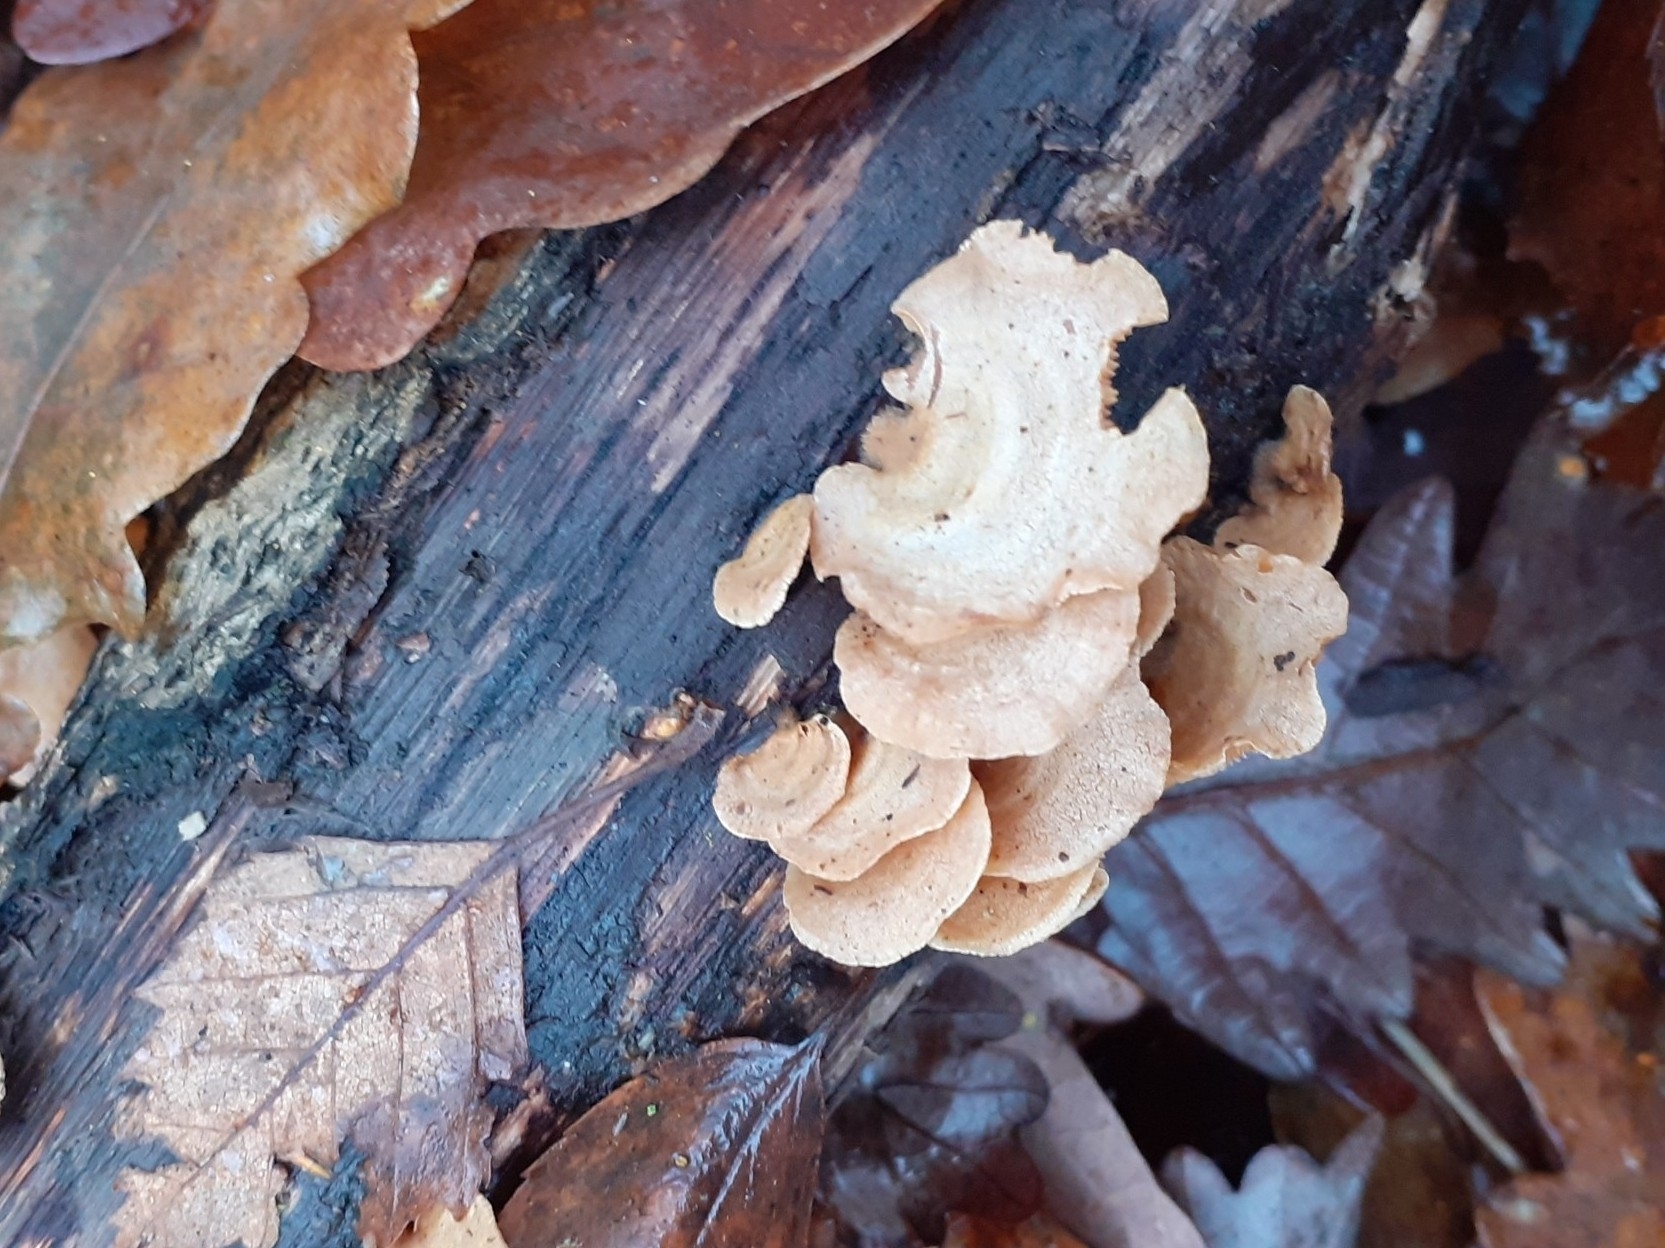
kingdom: Fungi
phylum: Basidiomycota
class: Agaricomycetes
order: Agaricales
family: Mycenaceae
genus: Panellus
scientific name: Panellus stipticus
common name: Bitter oysterling
